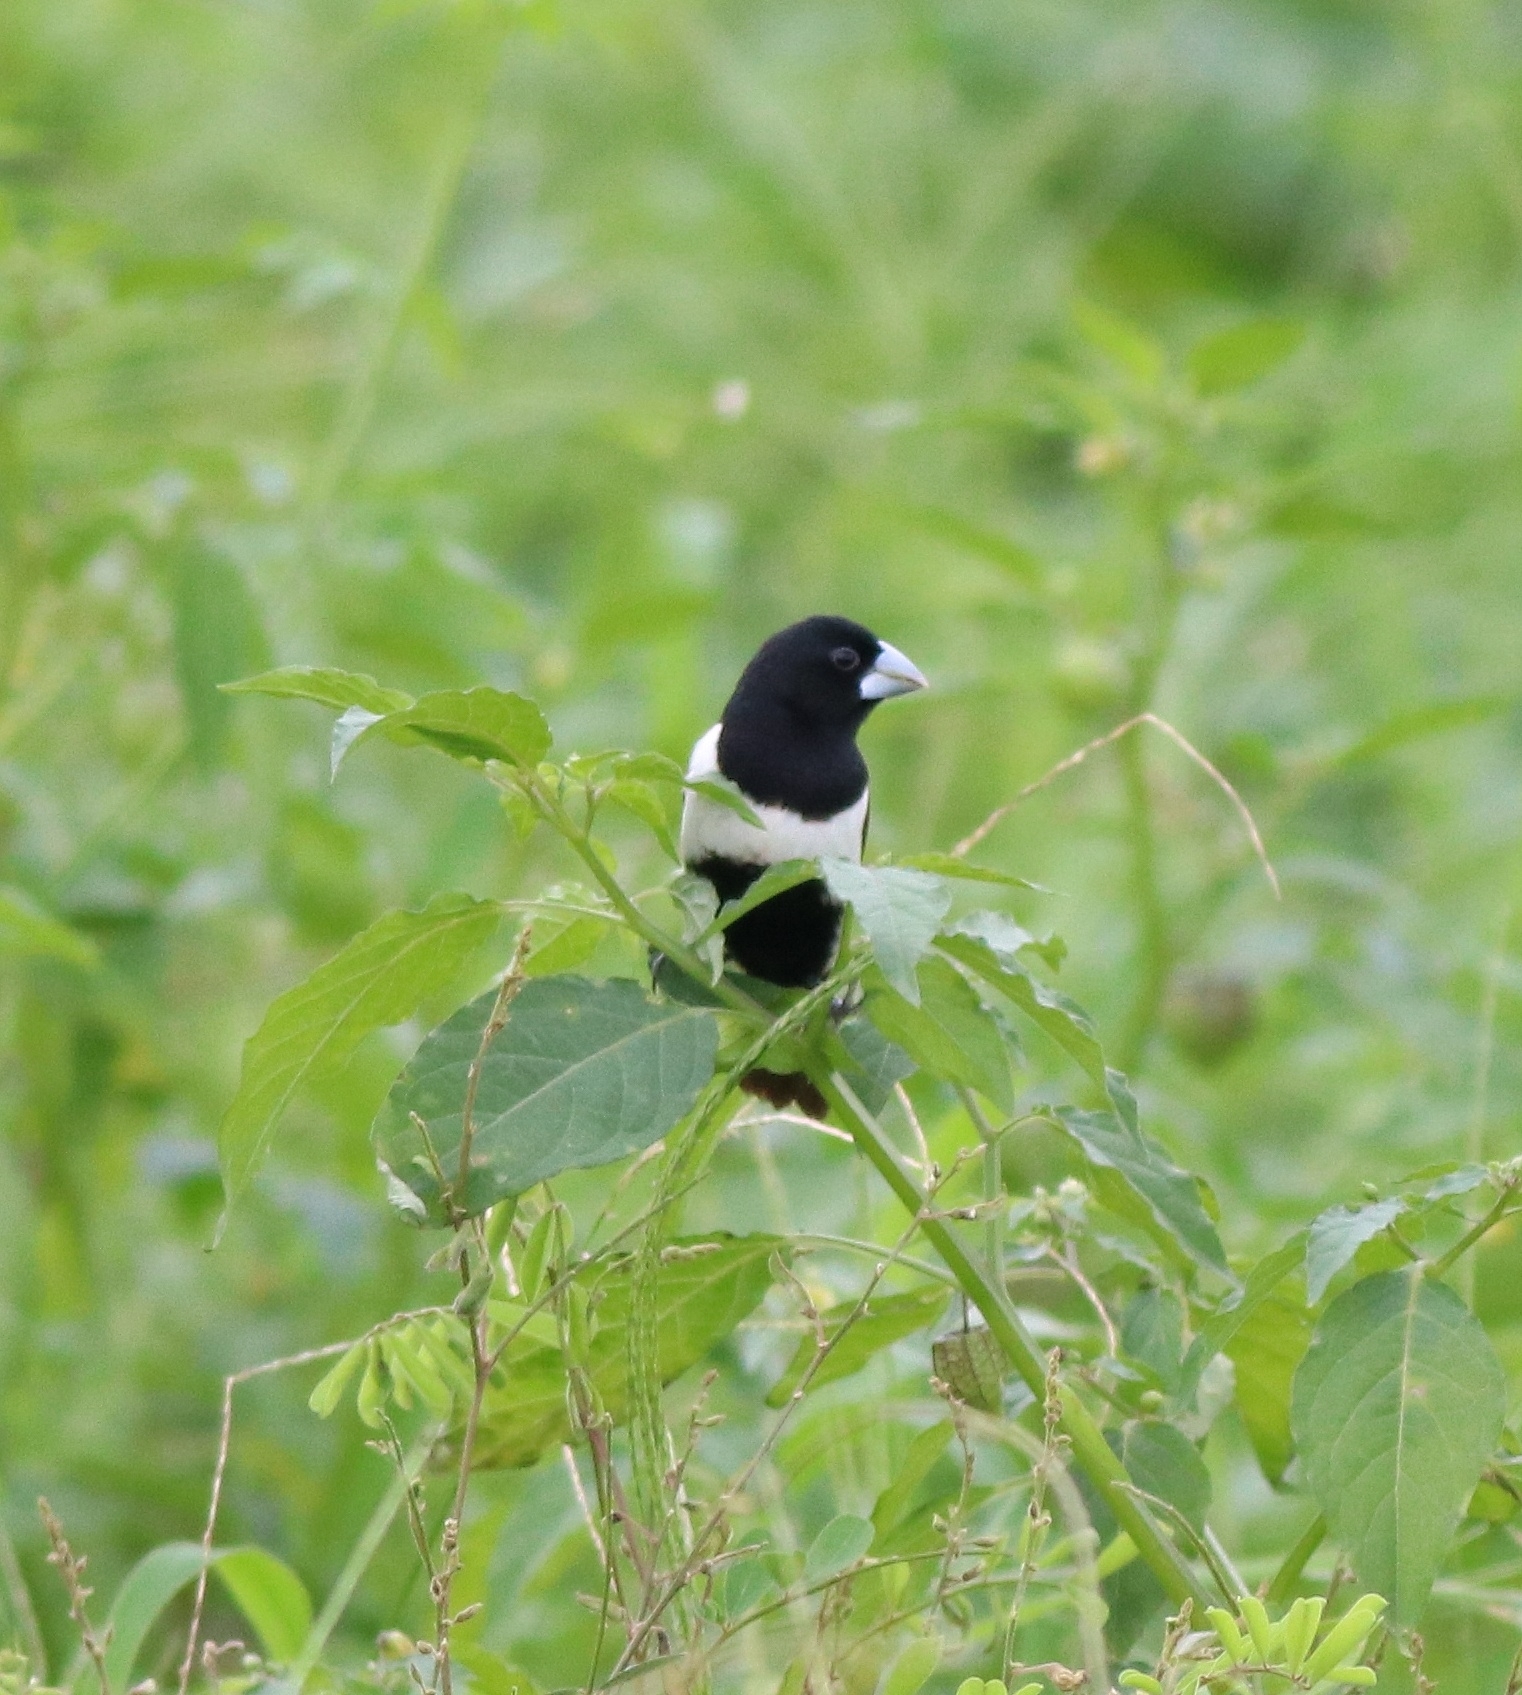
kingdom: Animalia
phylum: Chordata
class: Aves
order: Passeriformes
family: Estrildidae
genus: Lonchura
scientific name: Lonchura malacca
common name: Tricolored munia
